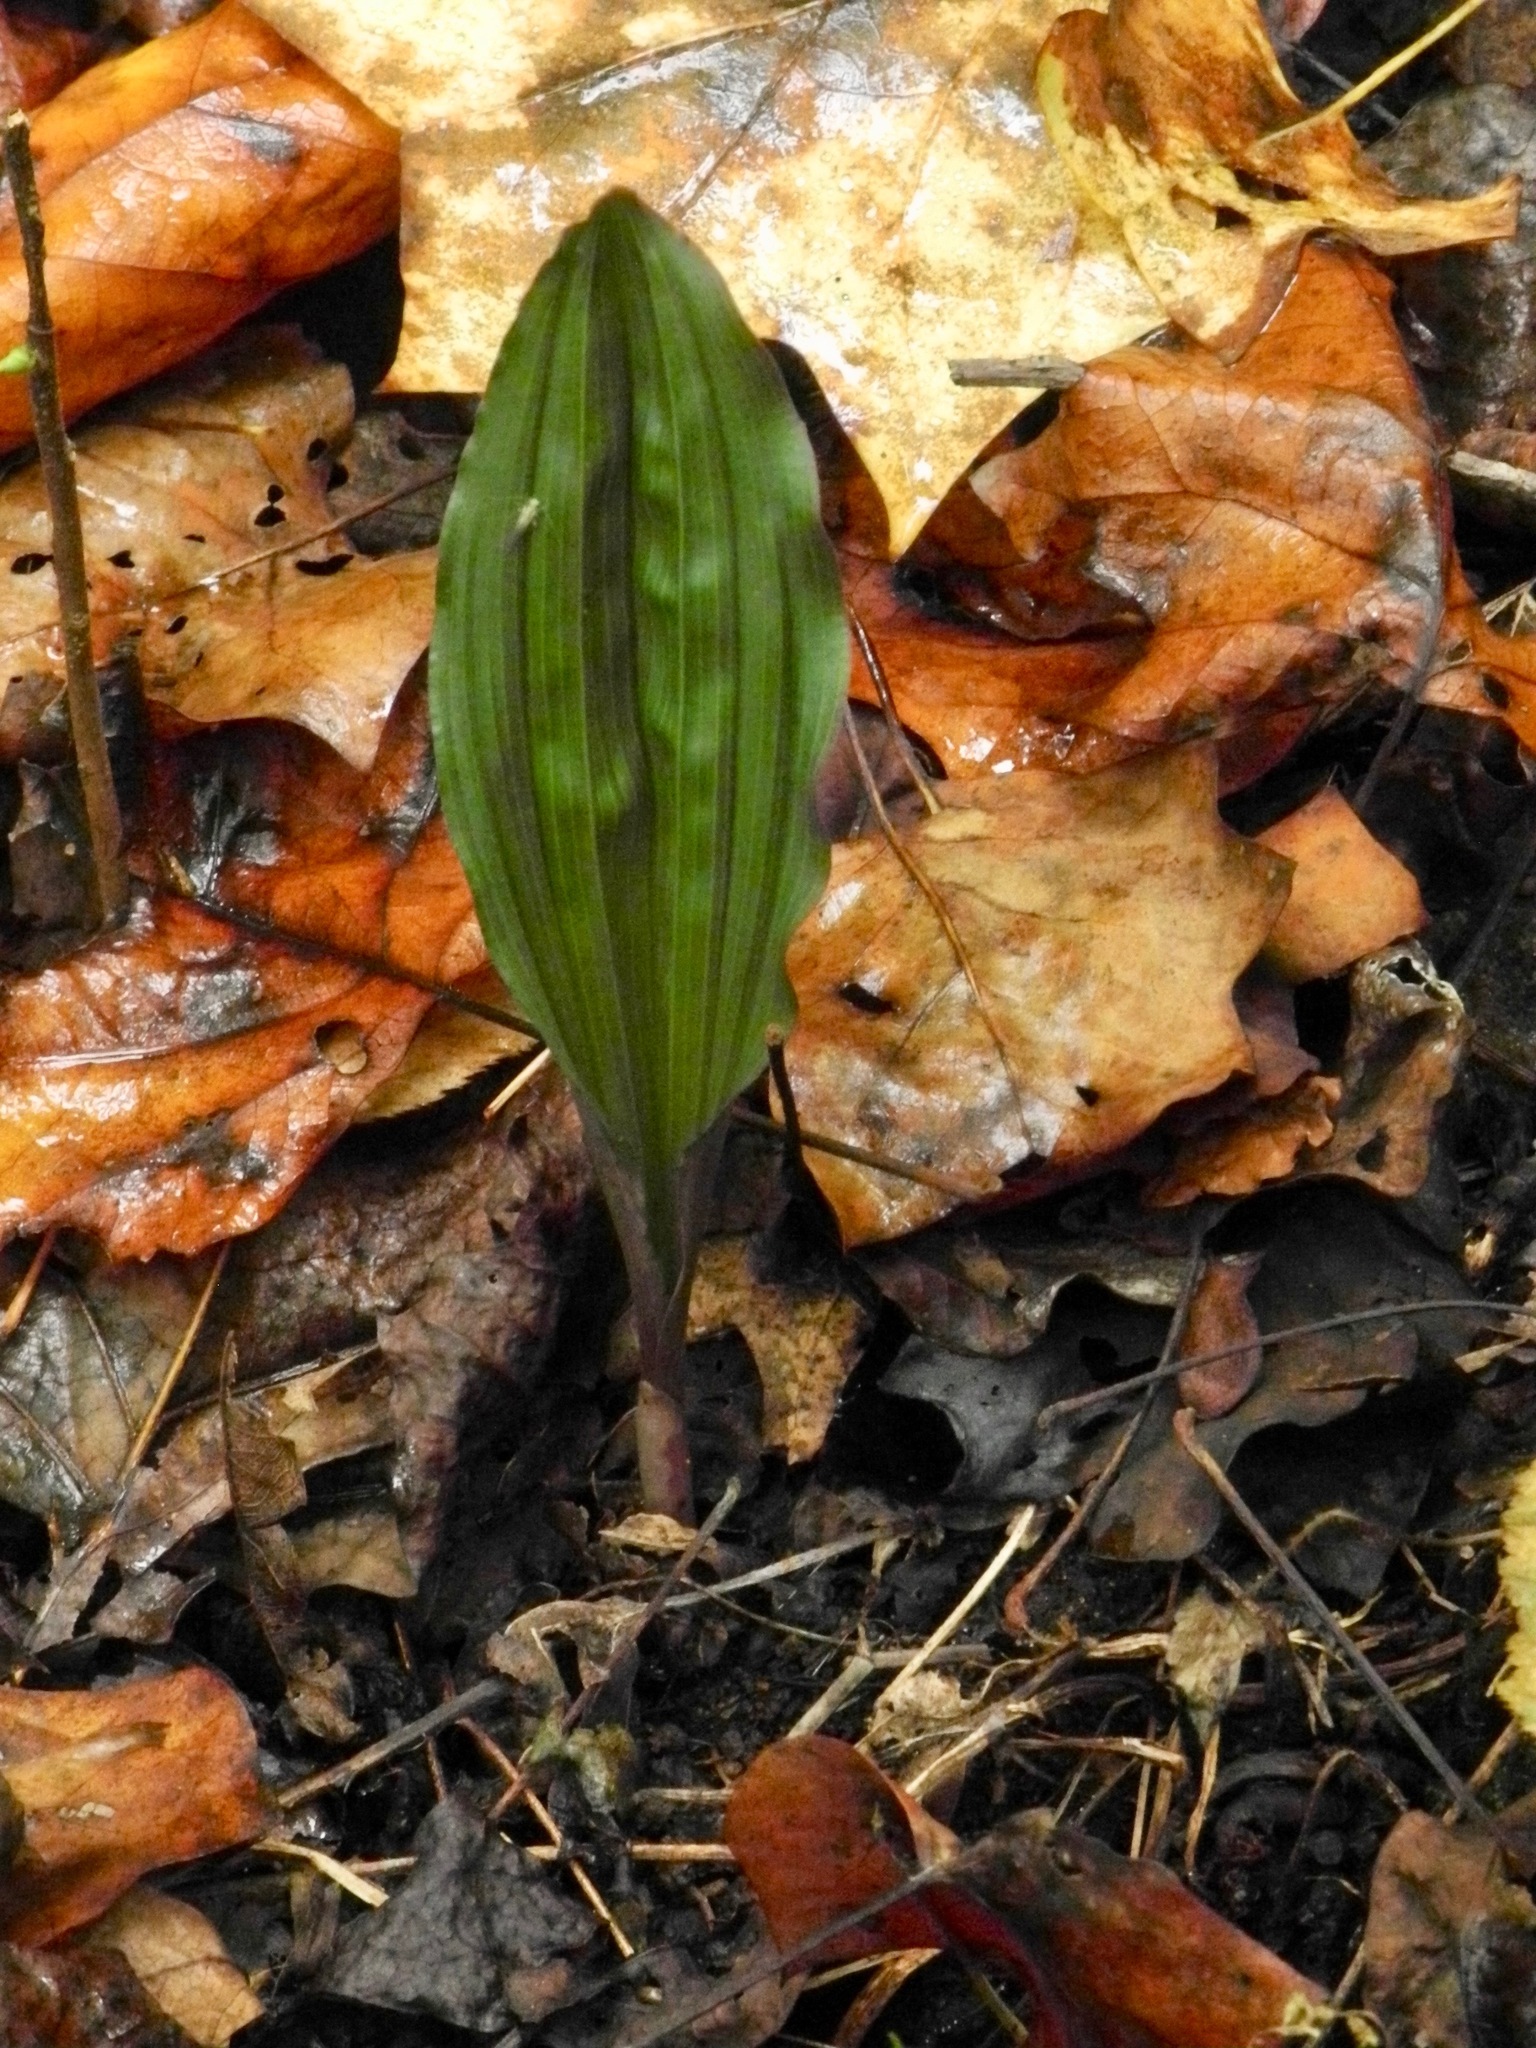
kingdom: Plantae
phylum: Tracheophyta
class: Liliopsida
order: Asparagales
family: Orchidaceae
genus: Aplectrum
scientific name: Aplectrum hyemale
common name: Adam-and-eve
